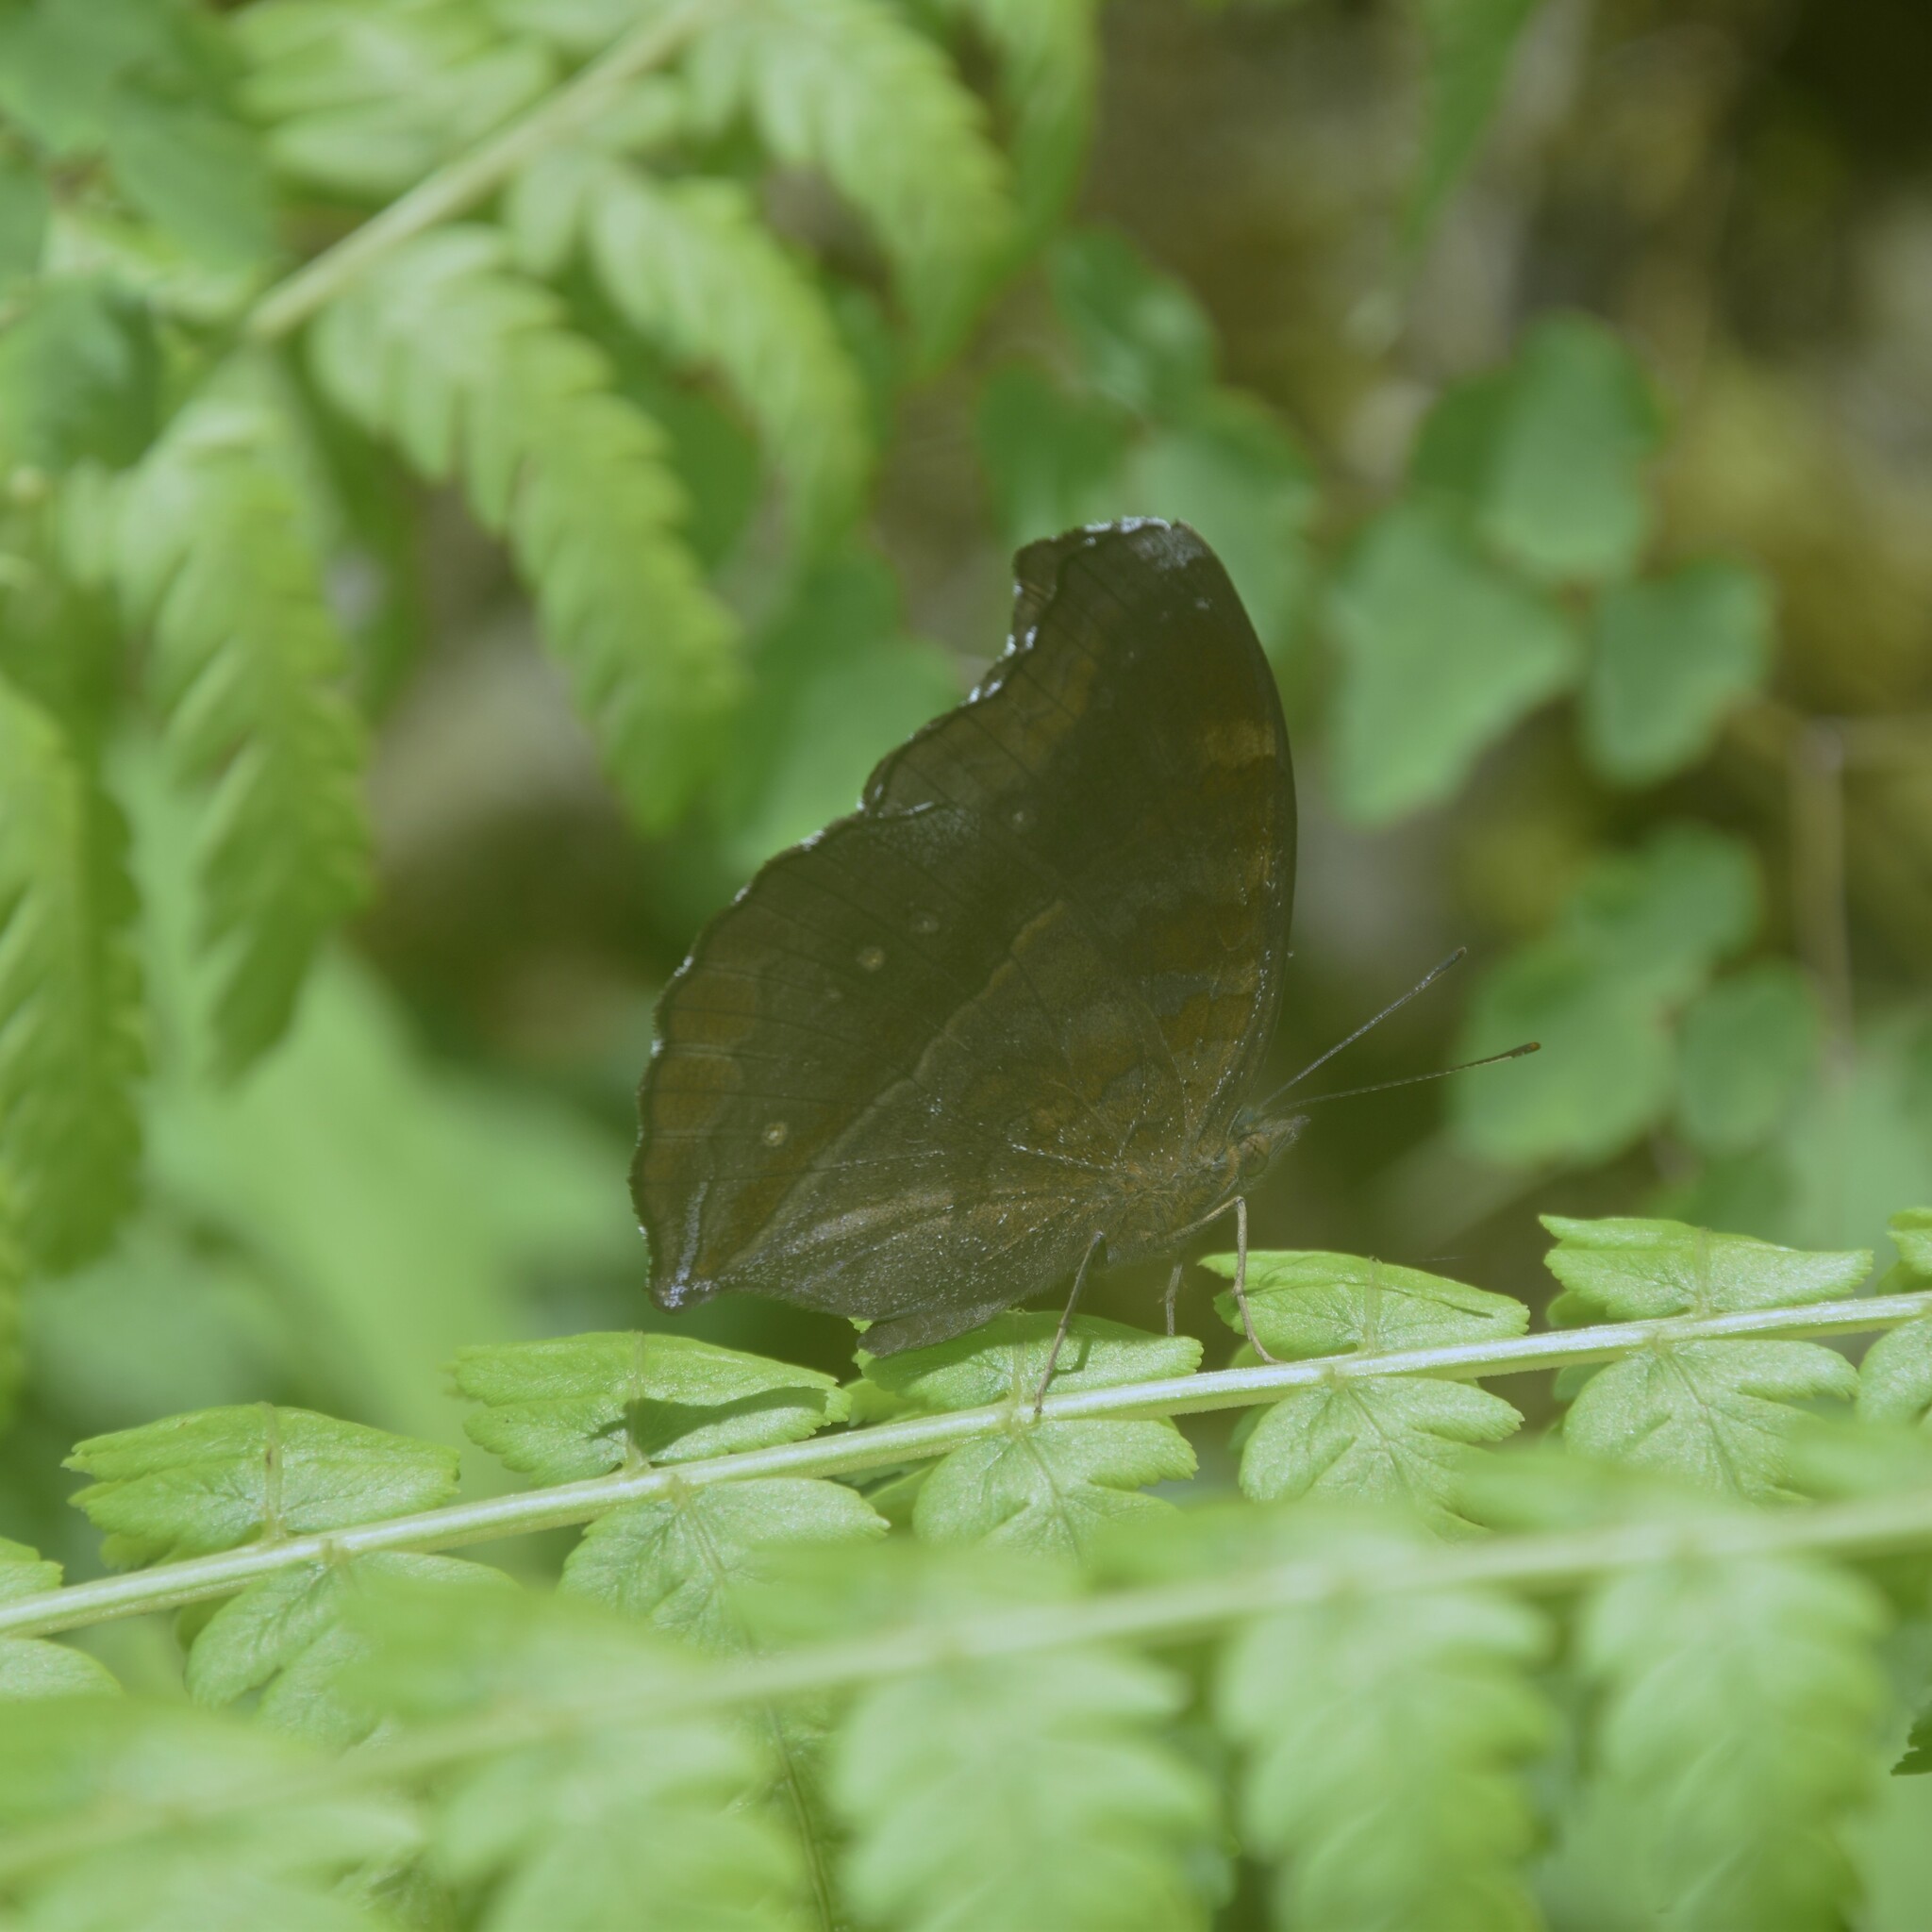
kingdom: Animalia
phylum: Arthropoda
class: Insecta
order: Lepidoptera
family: Nymphalidae
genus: Junonia
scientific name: Junonia iphita
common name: Chocolate pansy
